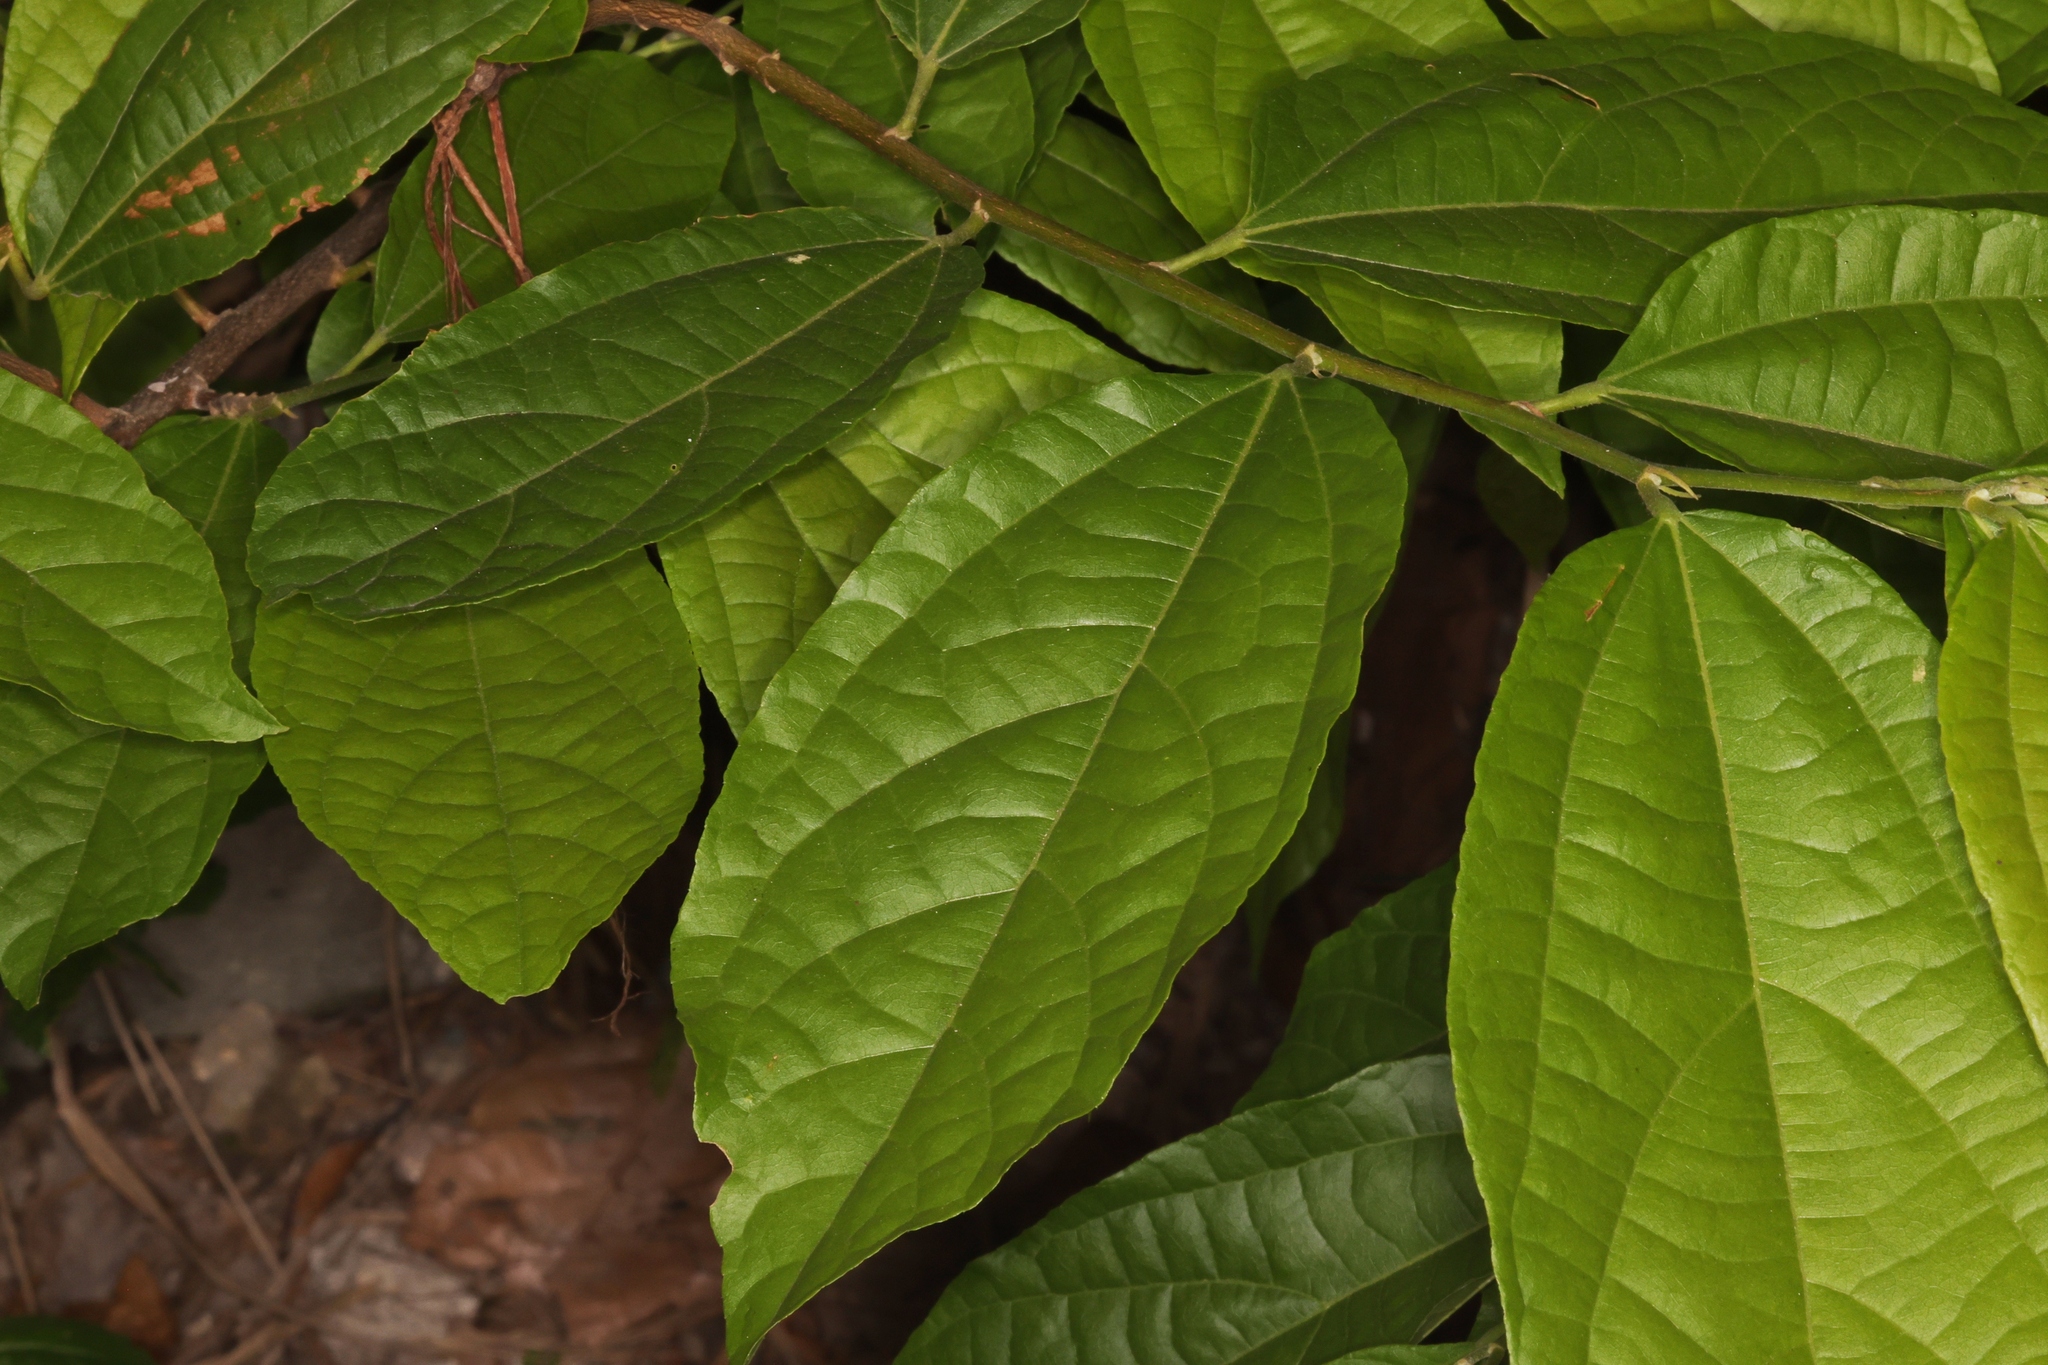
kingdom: Plantae
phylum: Tracheophyta
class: Magnoliopsida
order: Malvales
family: Malvaceae
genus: Microcos
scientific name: Microcos paniculata
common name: Microcos
